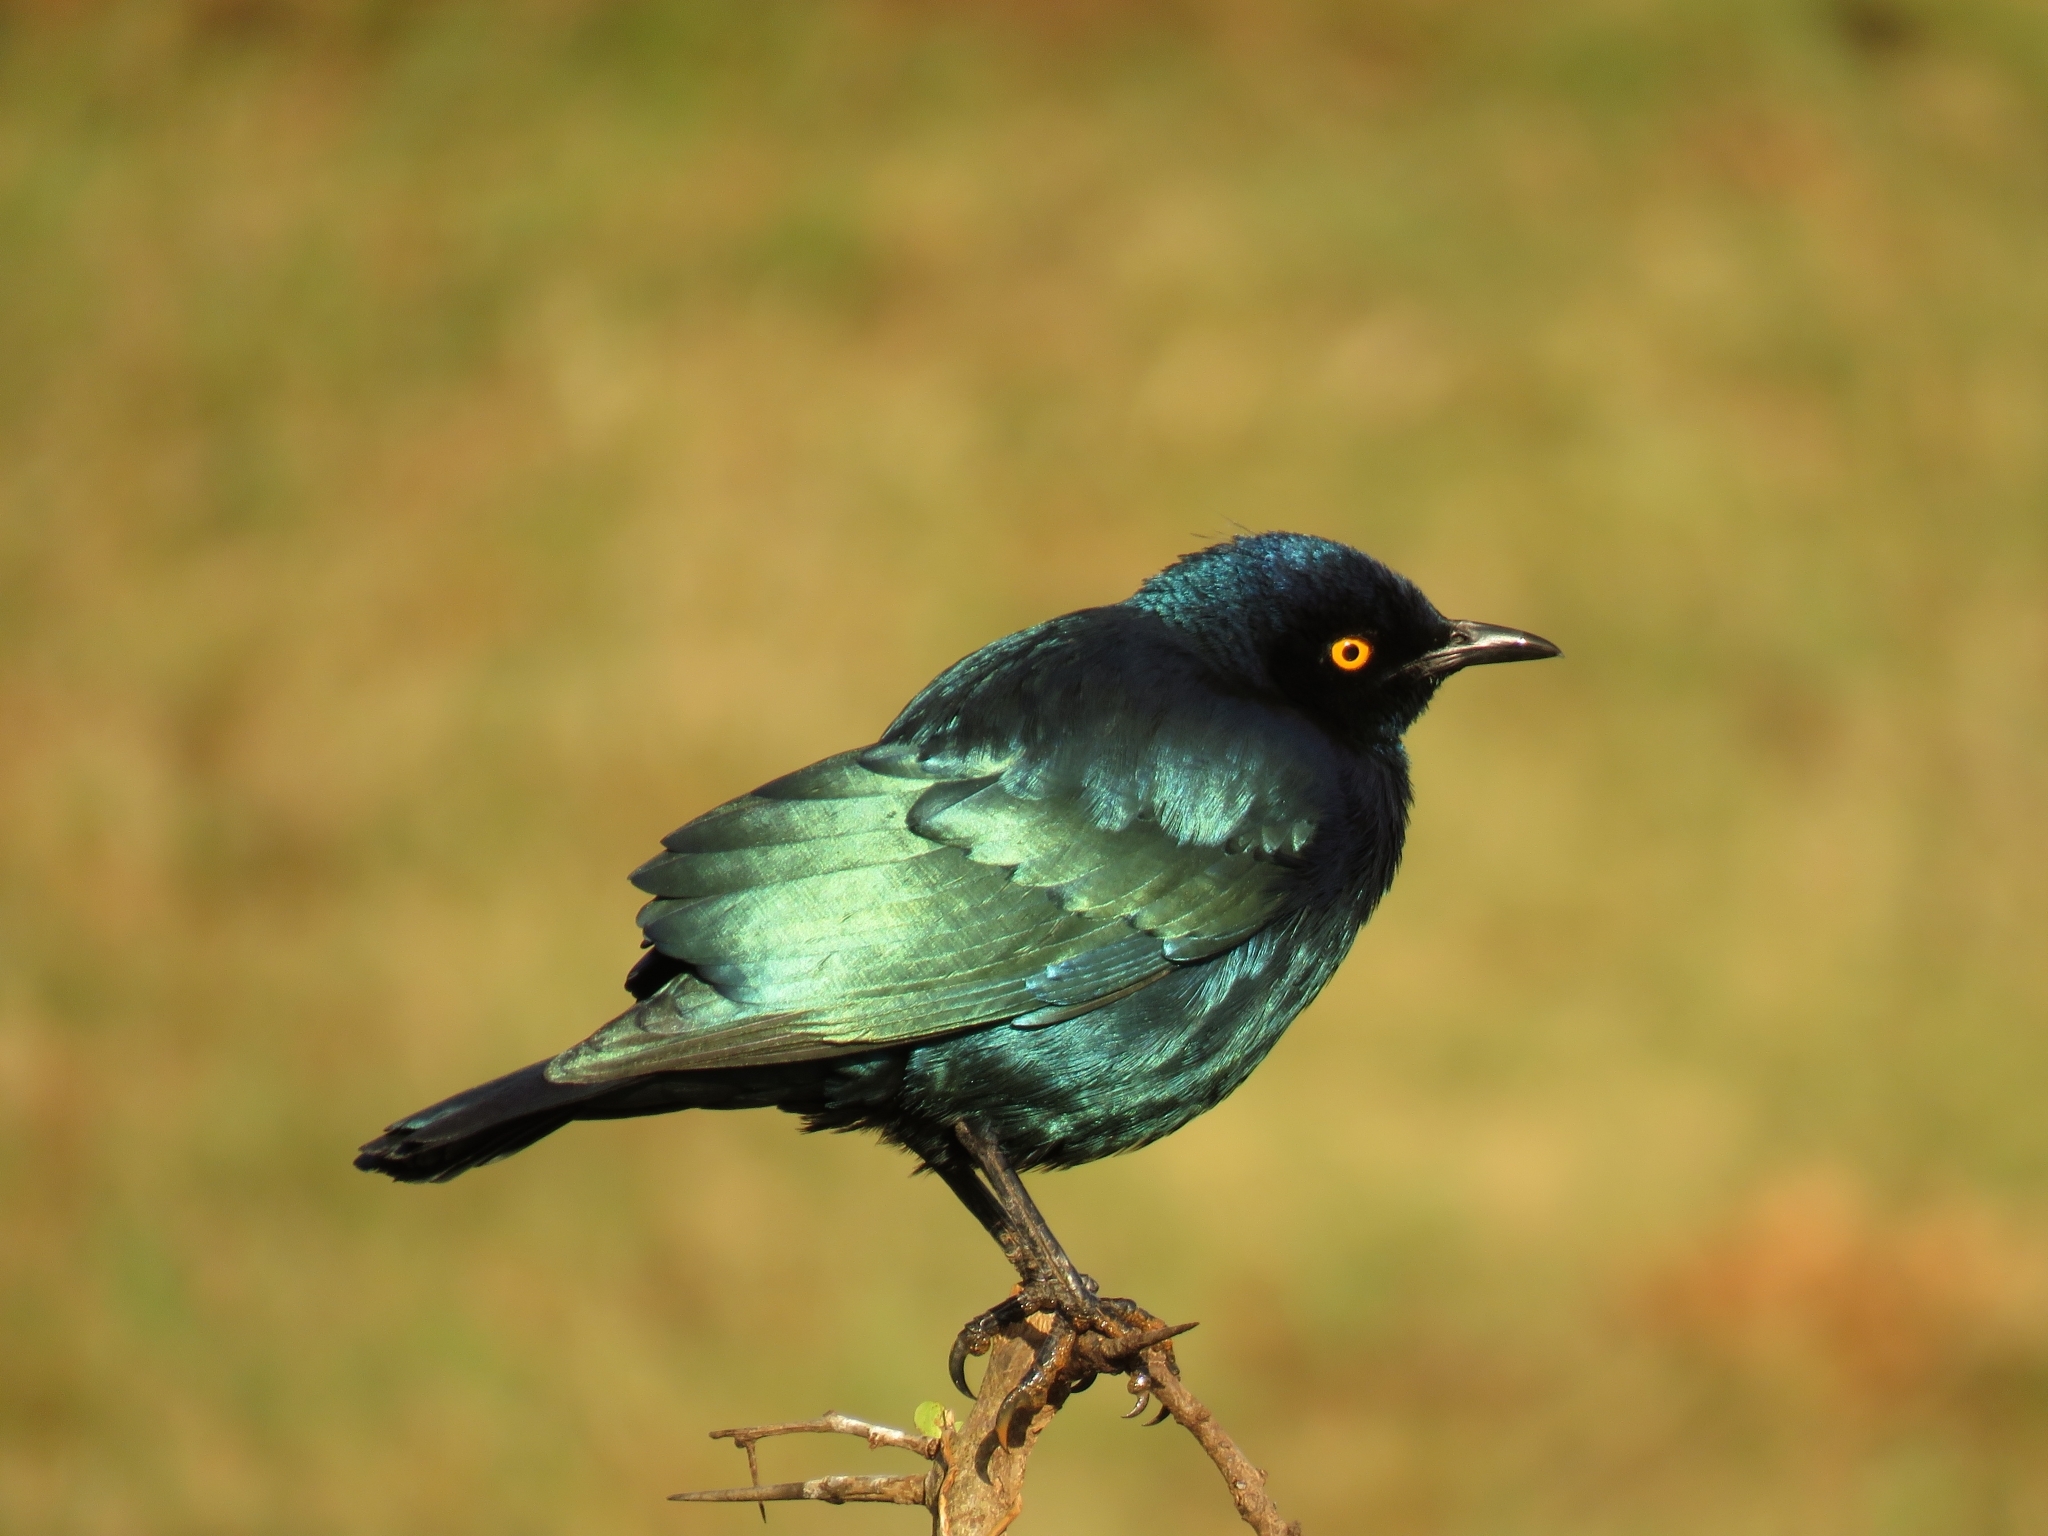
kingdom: Animalia
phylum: Chordata
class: Aves
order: Passeriformes
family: Sturnidae
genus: Lamprotornis
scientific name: Lamprotornis nitens
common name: Cape starling
